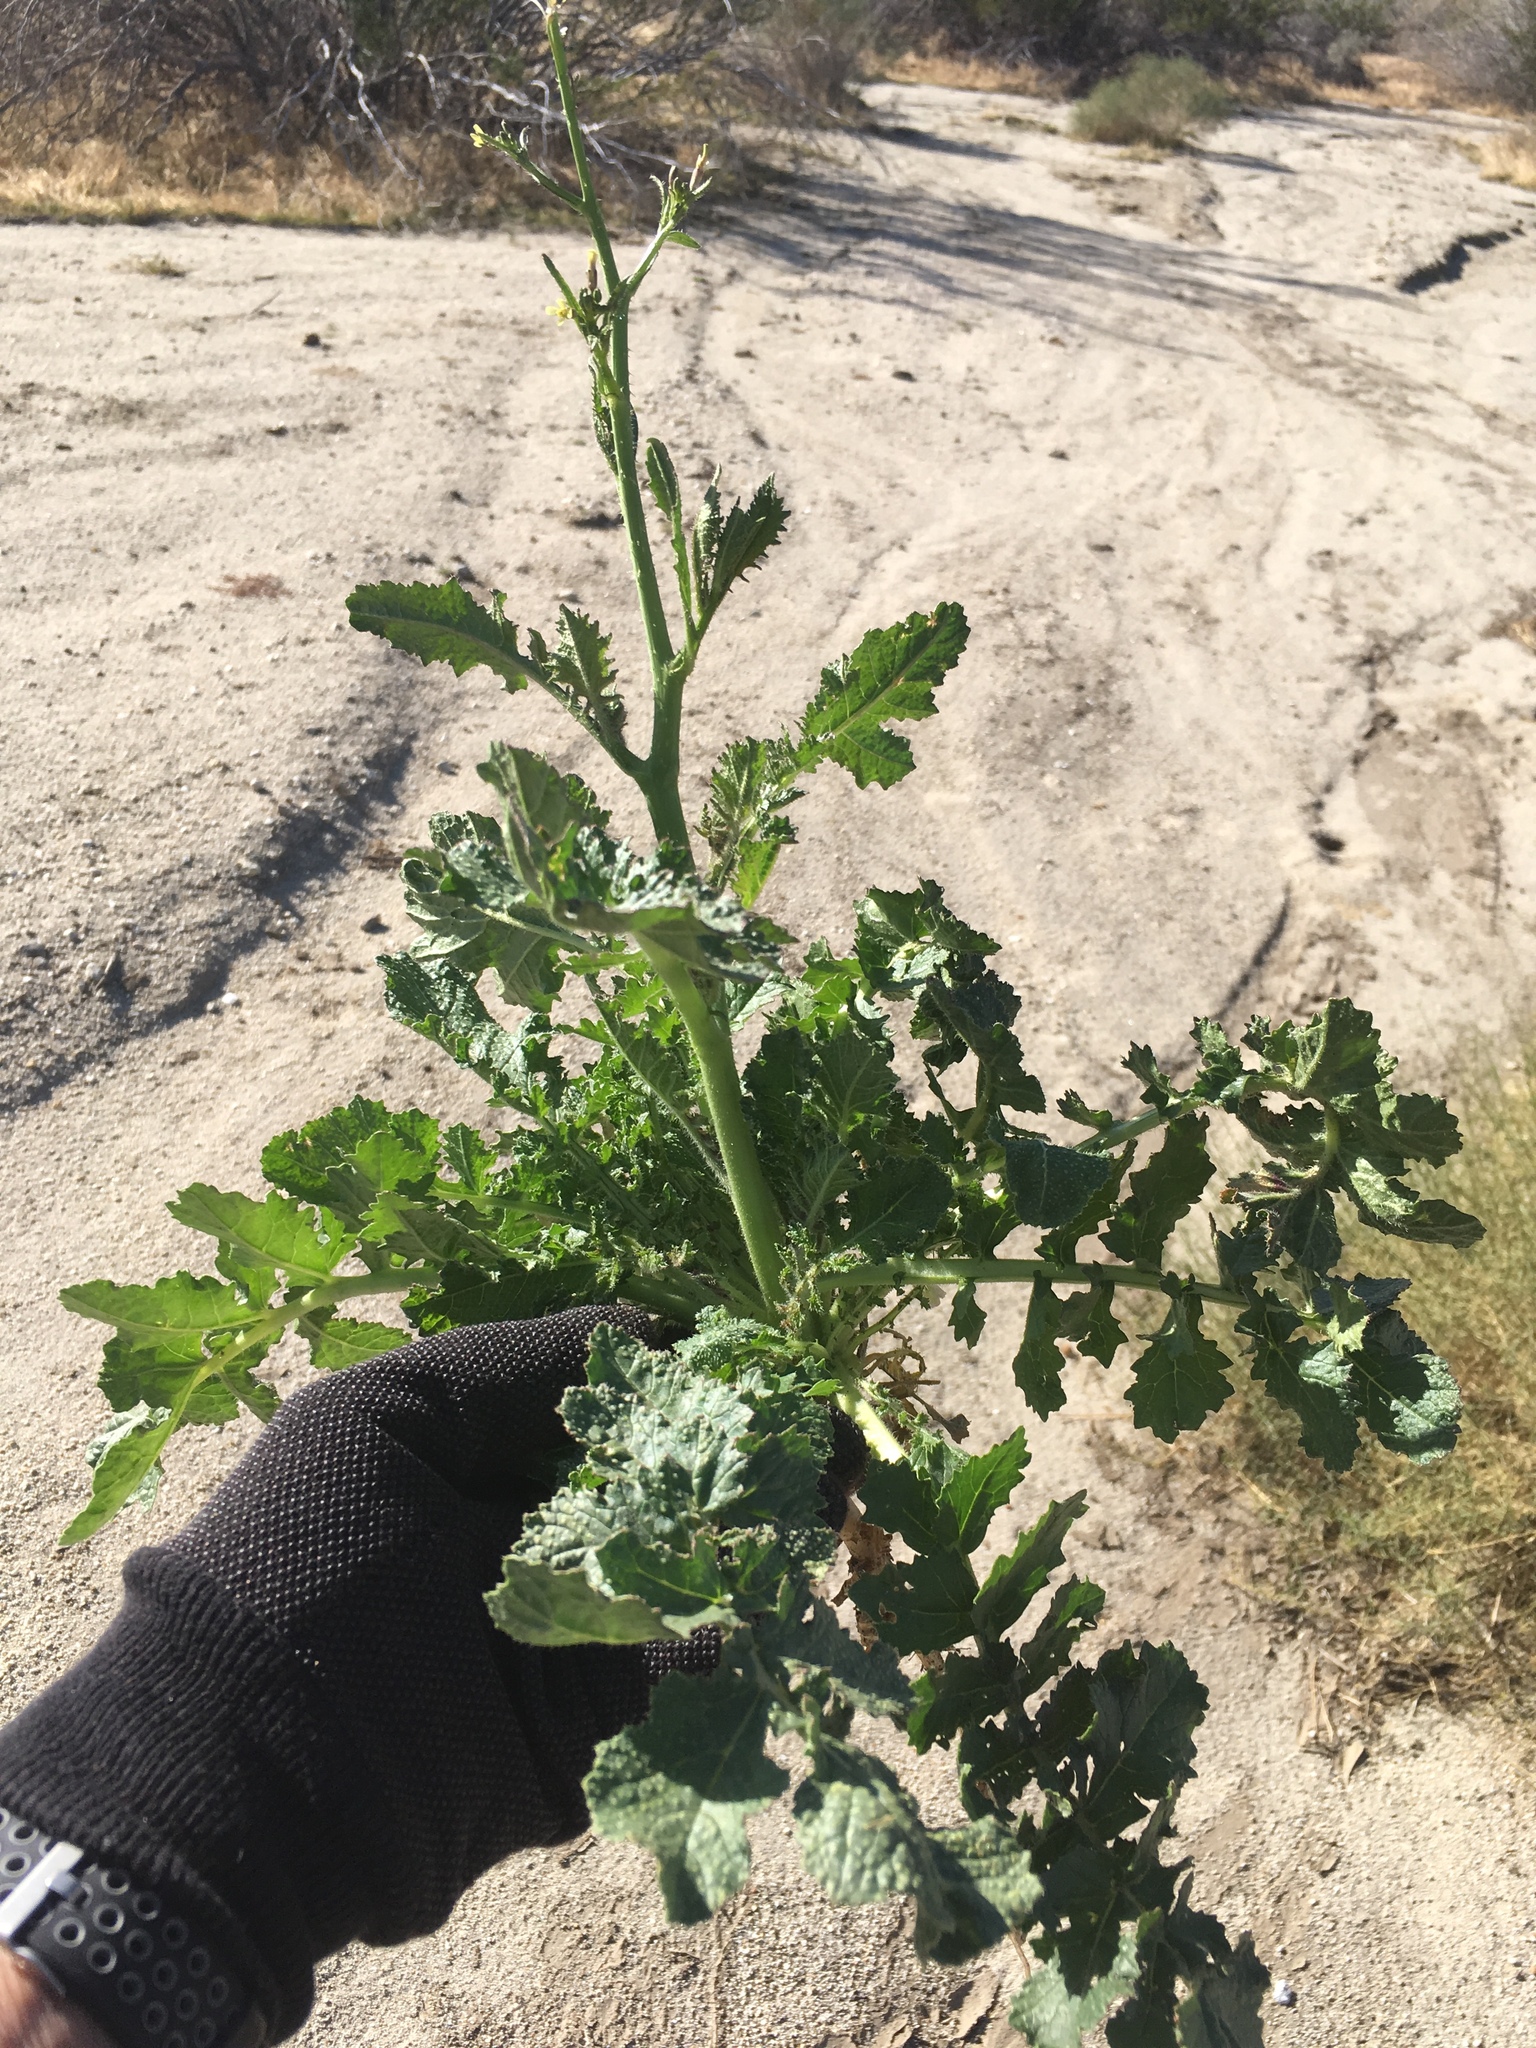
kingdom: Plantae
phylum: Tracheophyta
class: Magnoliopsida
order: Brassicales
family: Brassicaceae
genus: Brassica
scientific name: Brassica tournefortii
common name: Pale cabbage
